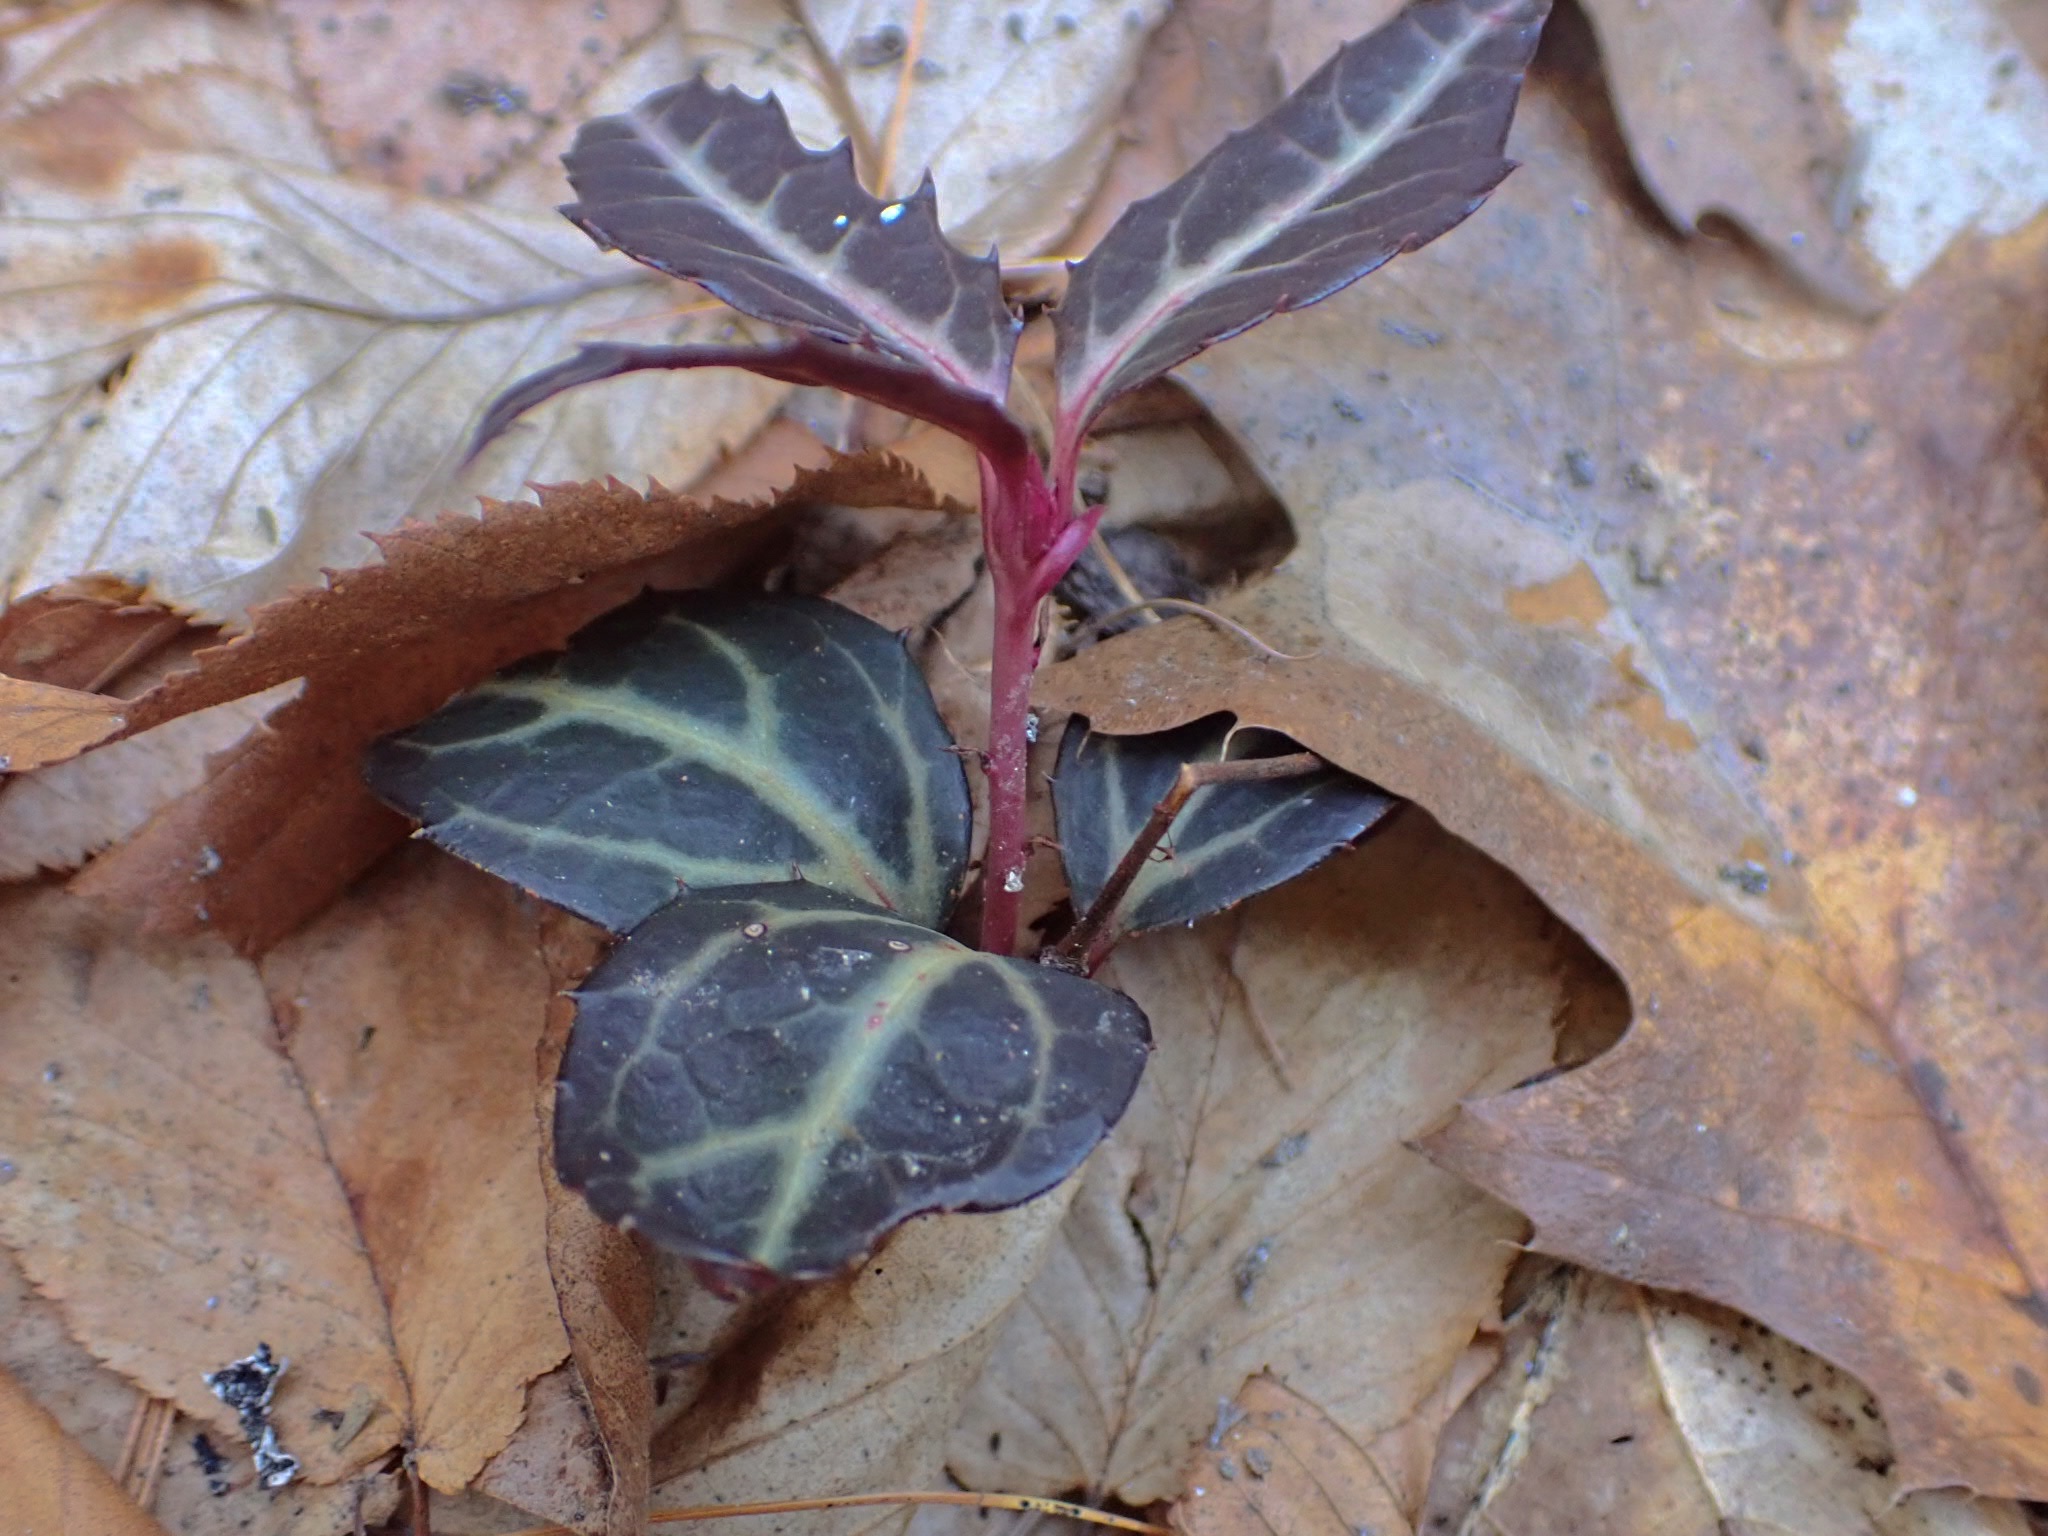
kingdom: Plantae
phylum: Tracheophyta
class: Magnoliopsida
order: Ericales
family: Ericaceae
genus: Chimaphila
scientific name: Chimaphila maculata
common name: Spotted pipsissewa
